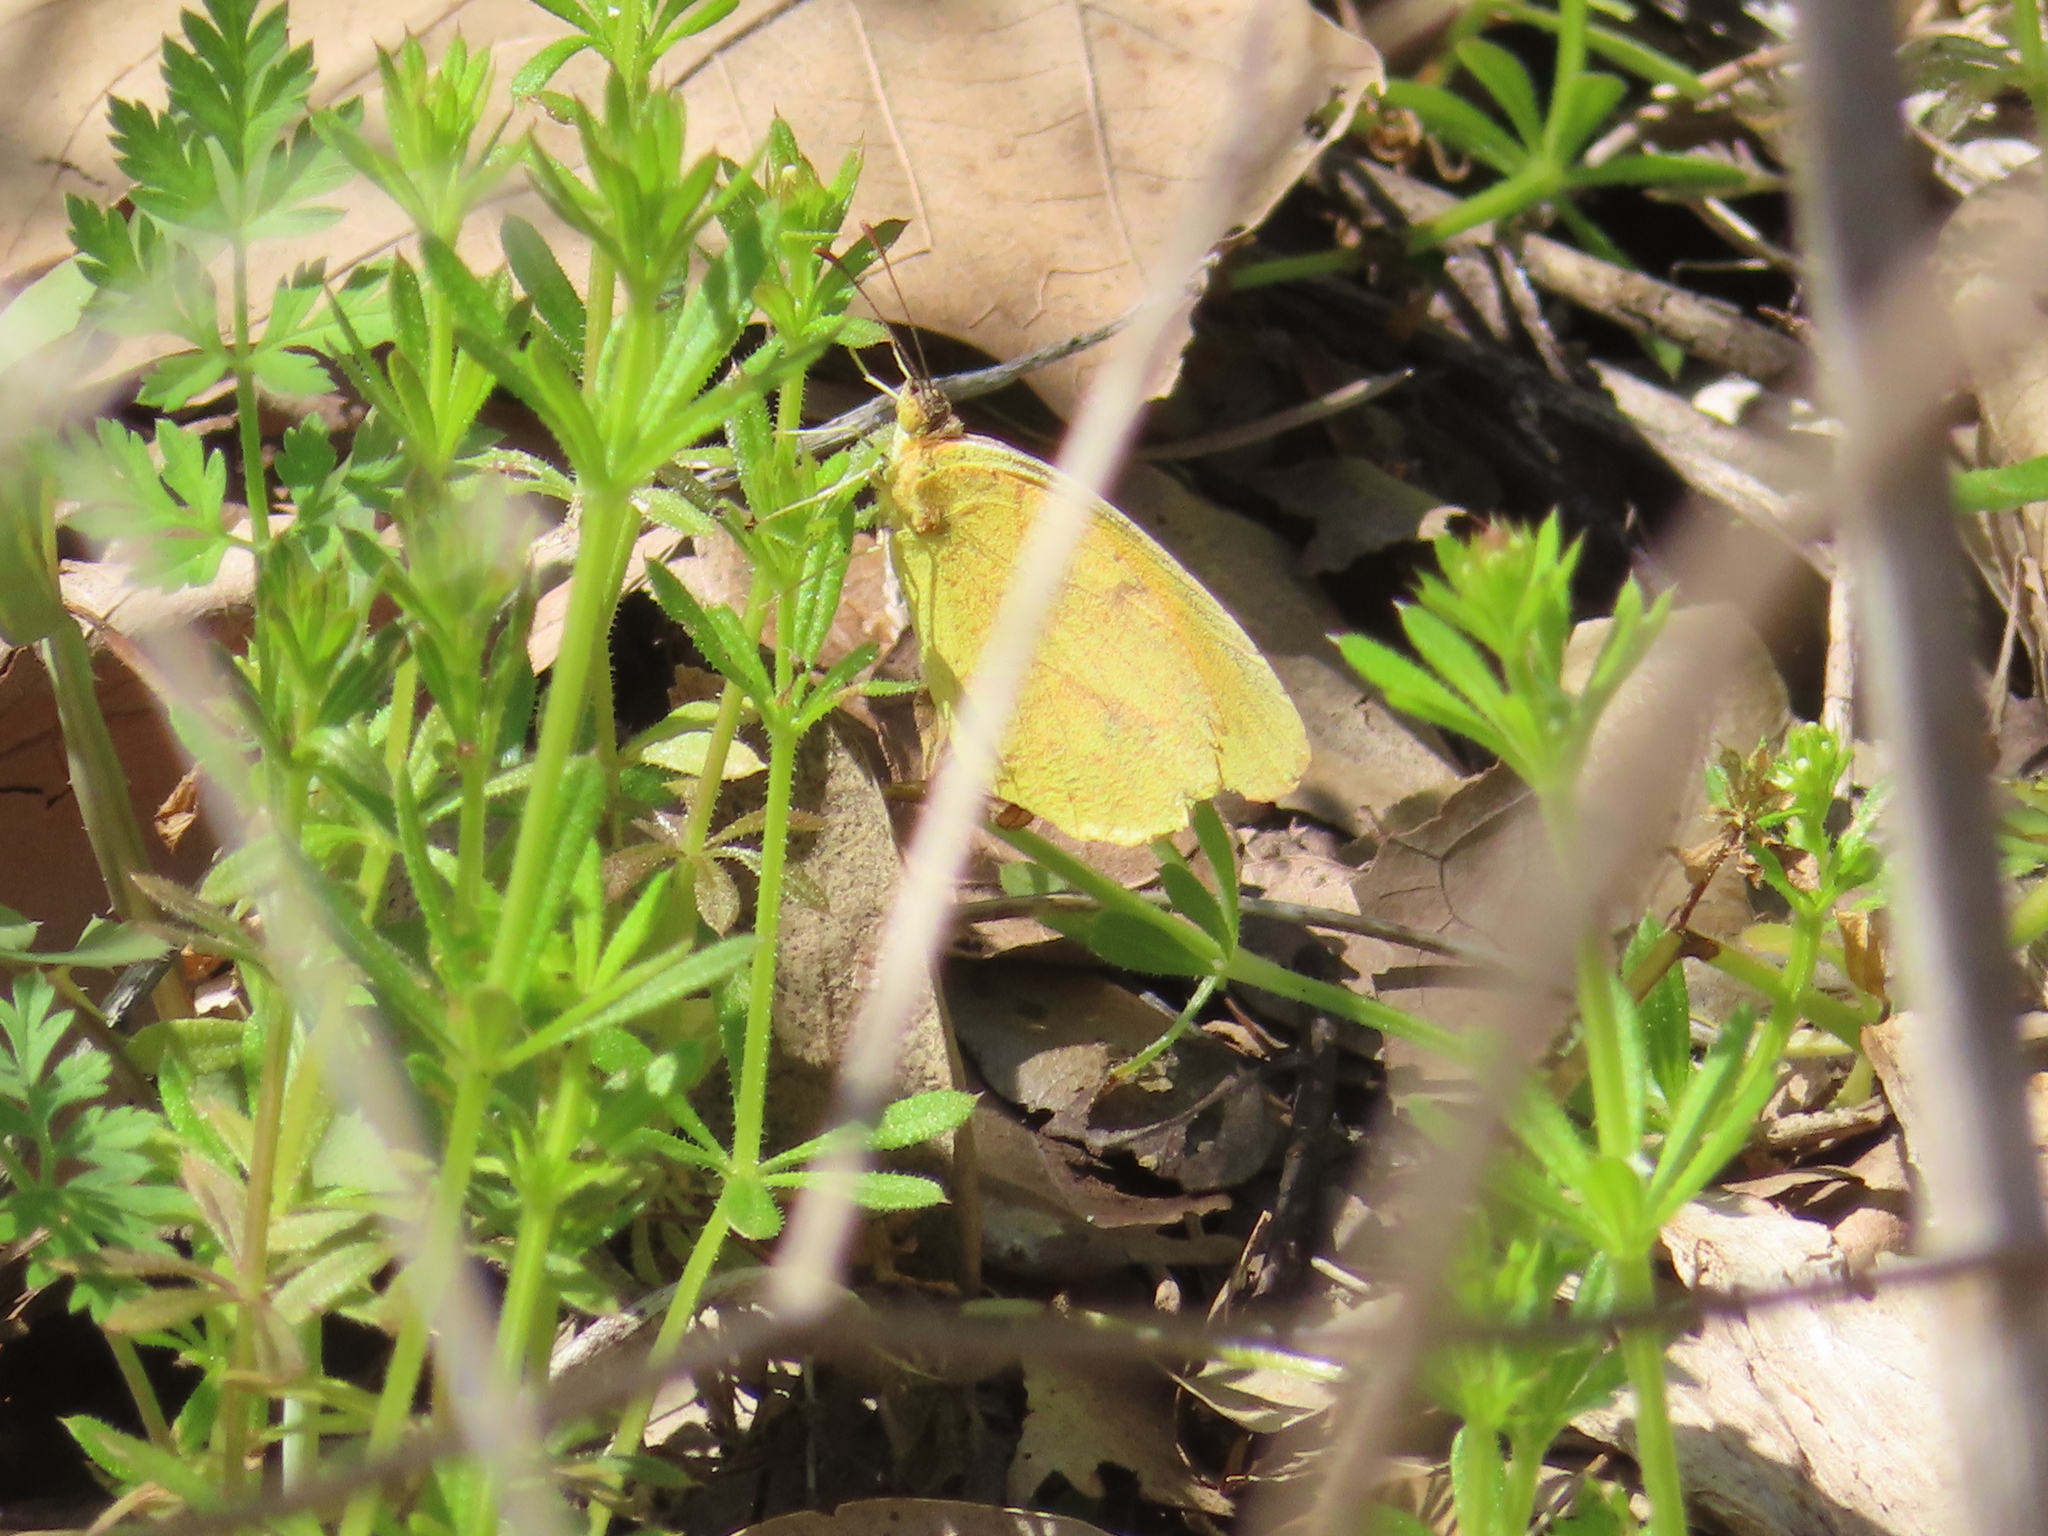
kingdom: Animalia
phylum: Arthropoda
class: Insecta
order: Lepidoptera
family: Pieridae
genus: Abaeis
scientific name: Abaeis nicippe
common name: Sleepy orange
